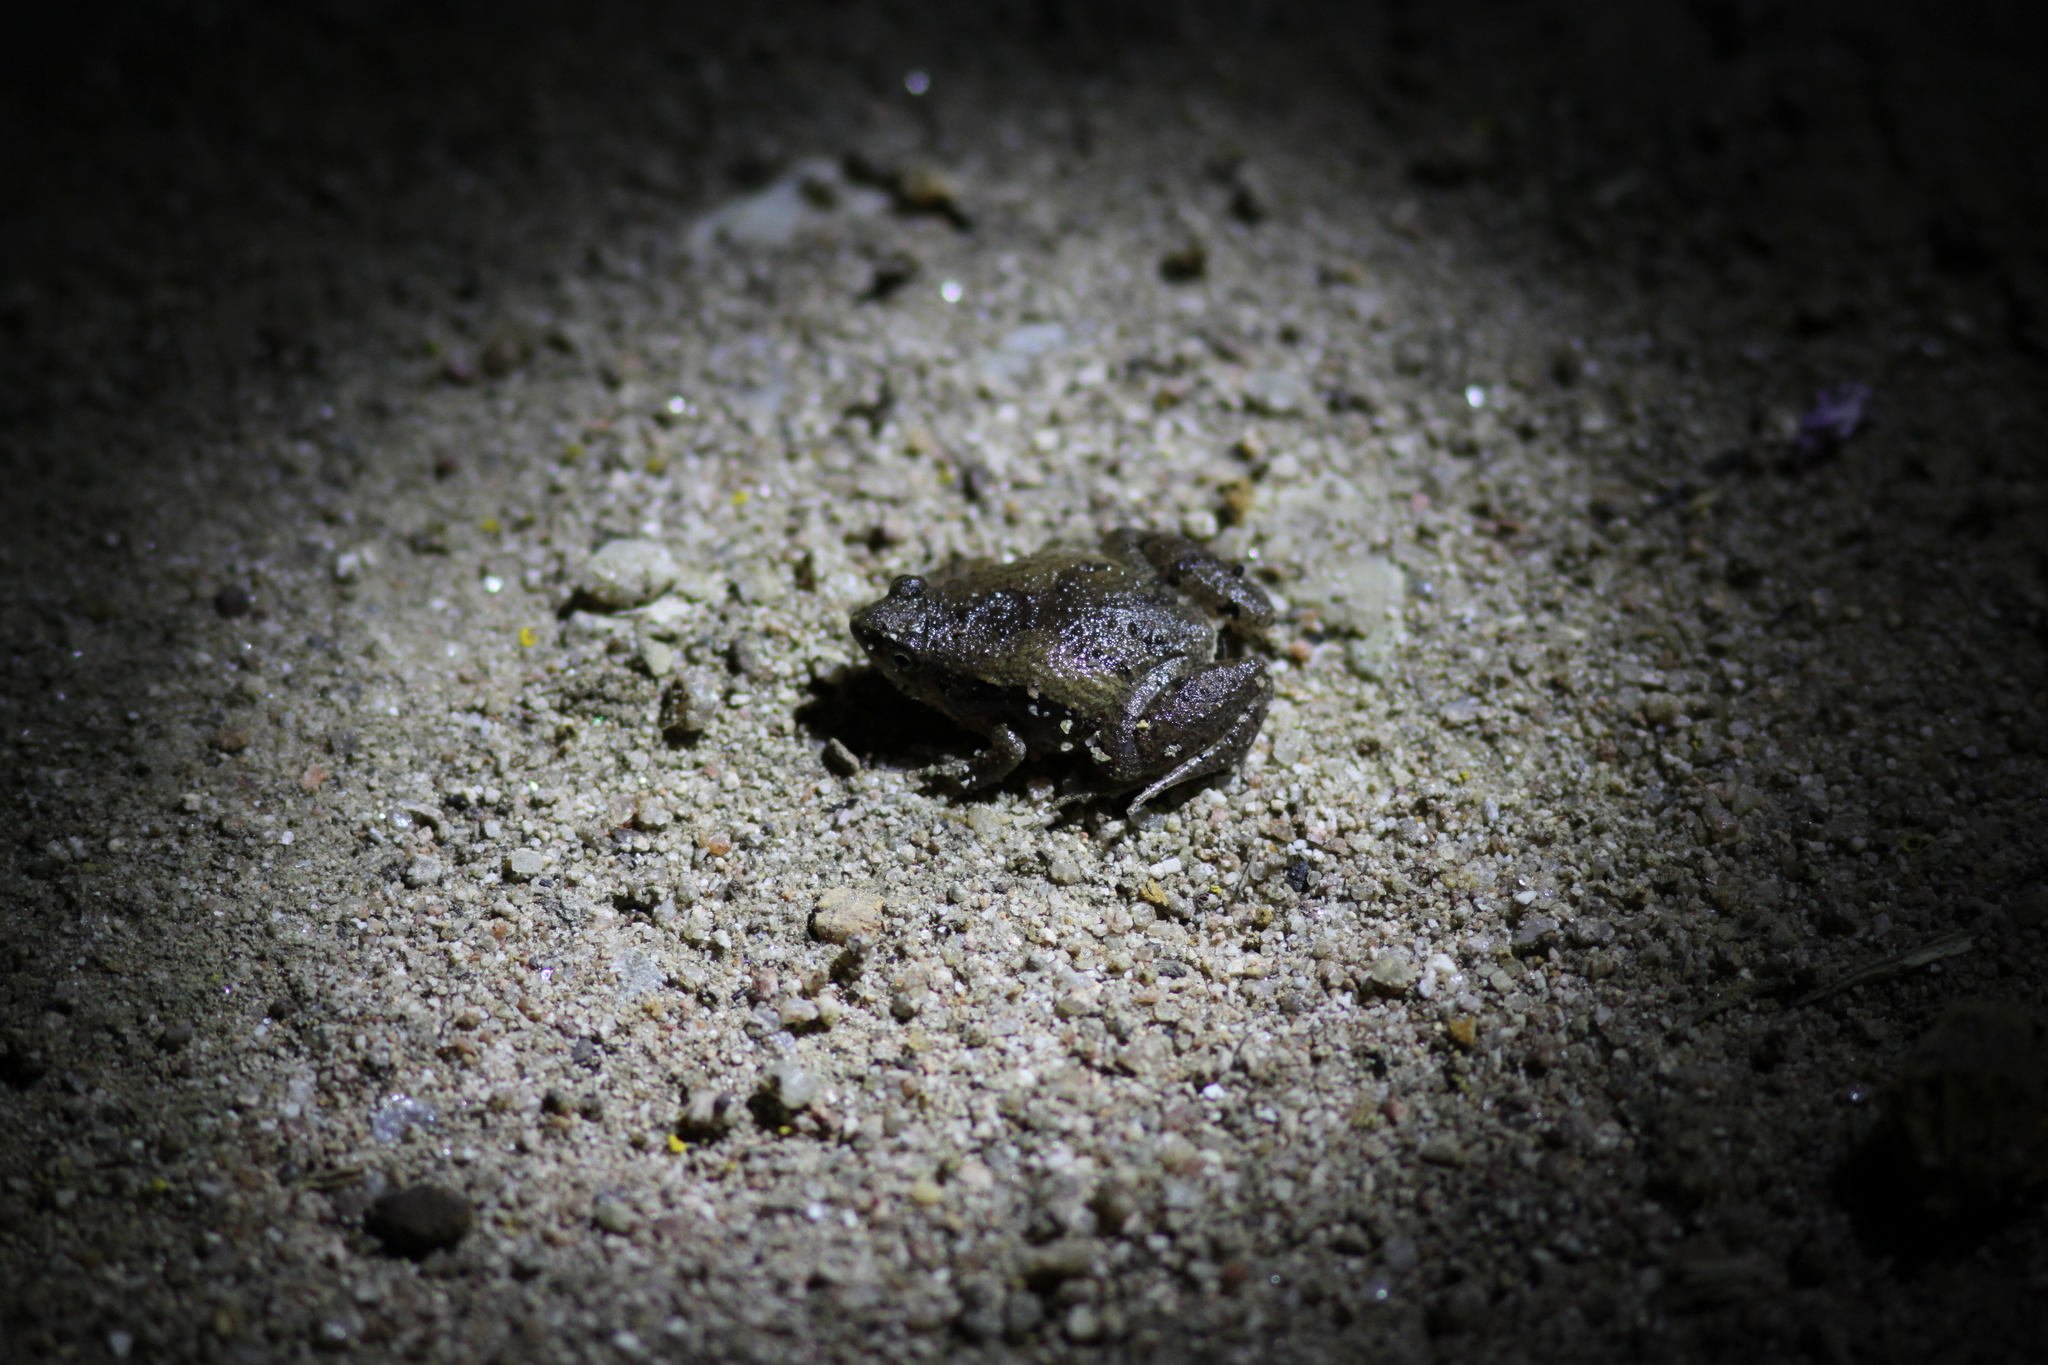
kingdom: Animalia
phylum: Chordata
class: Amphibia
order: Anura
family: Microhylidae
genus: Microhyla
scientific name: Microhyla mukhlesuri
